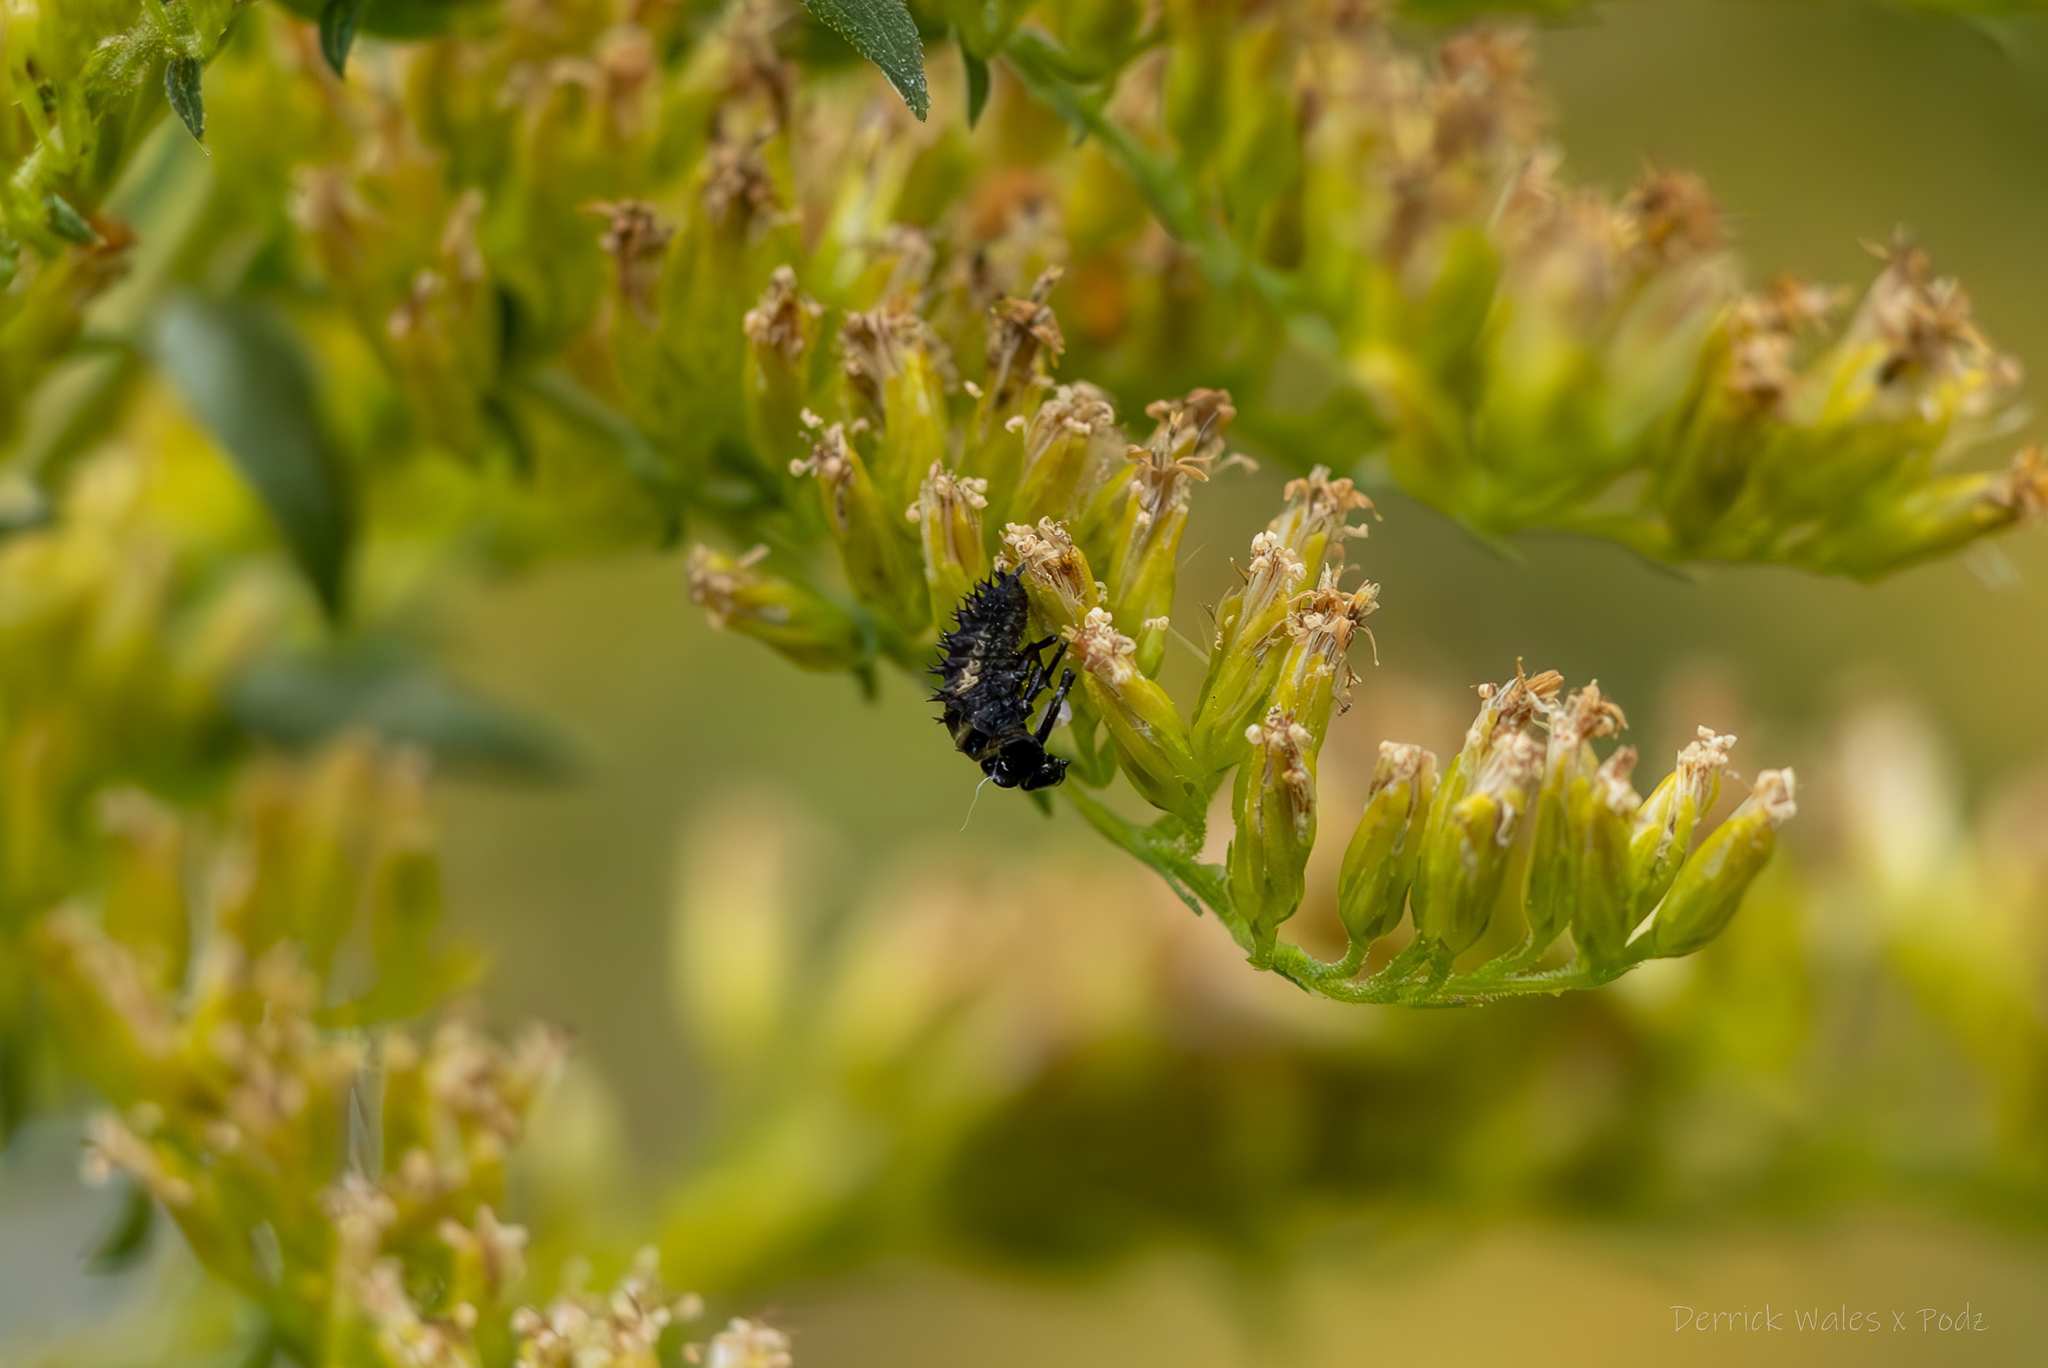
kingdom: Animalia
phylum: Arthropoda
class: Insecta
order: Coleoptera
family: Coccinellidae
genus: Harmonia
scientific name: Harmonia axyridis
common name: Harlequin ladybird
